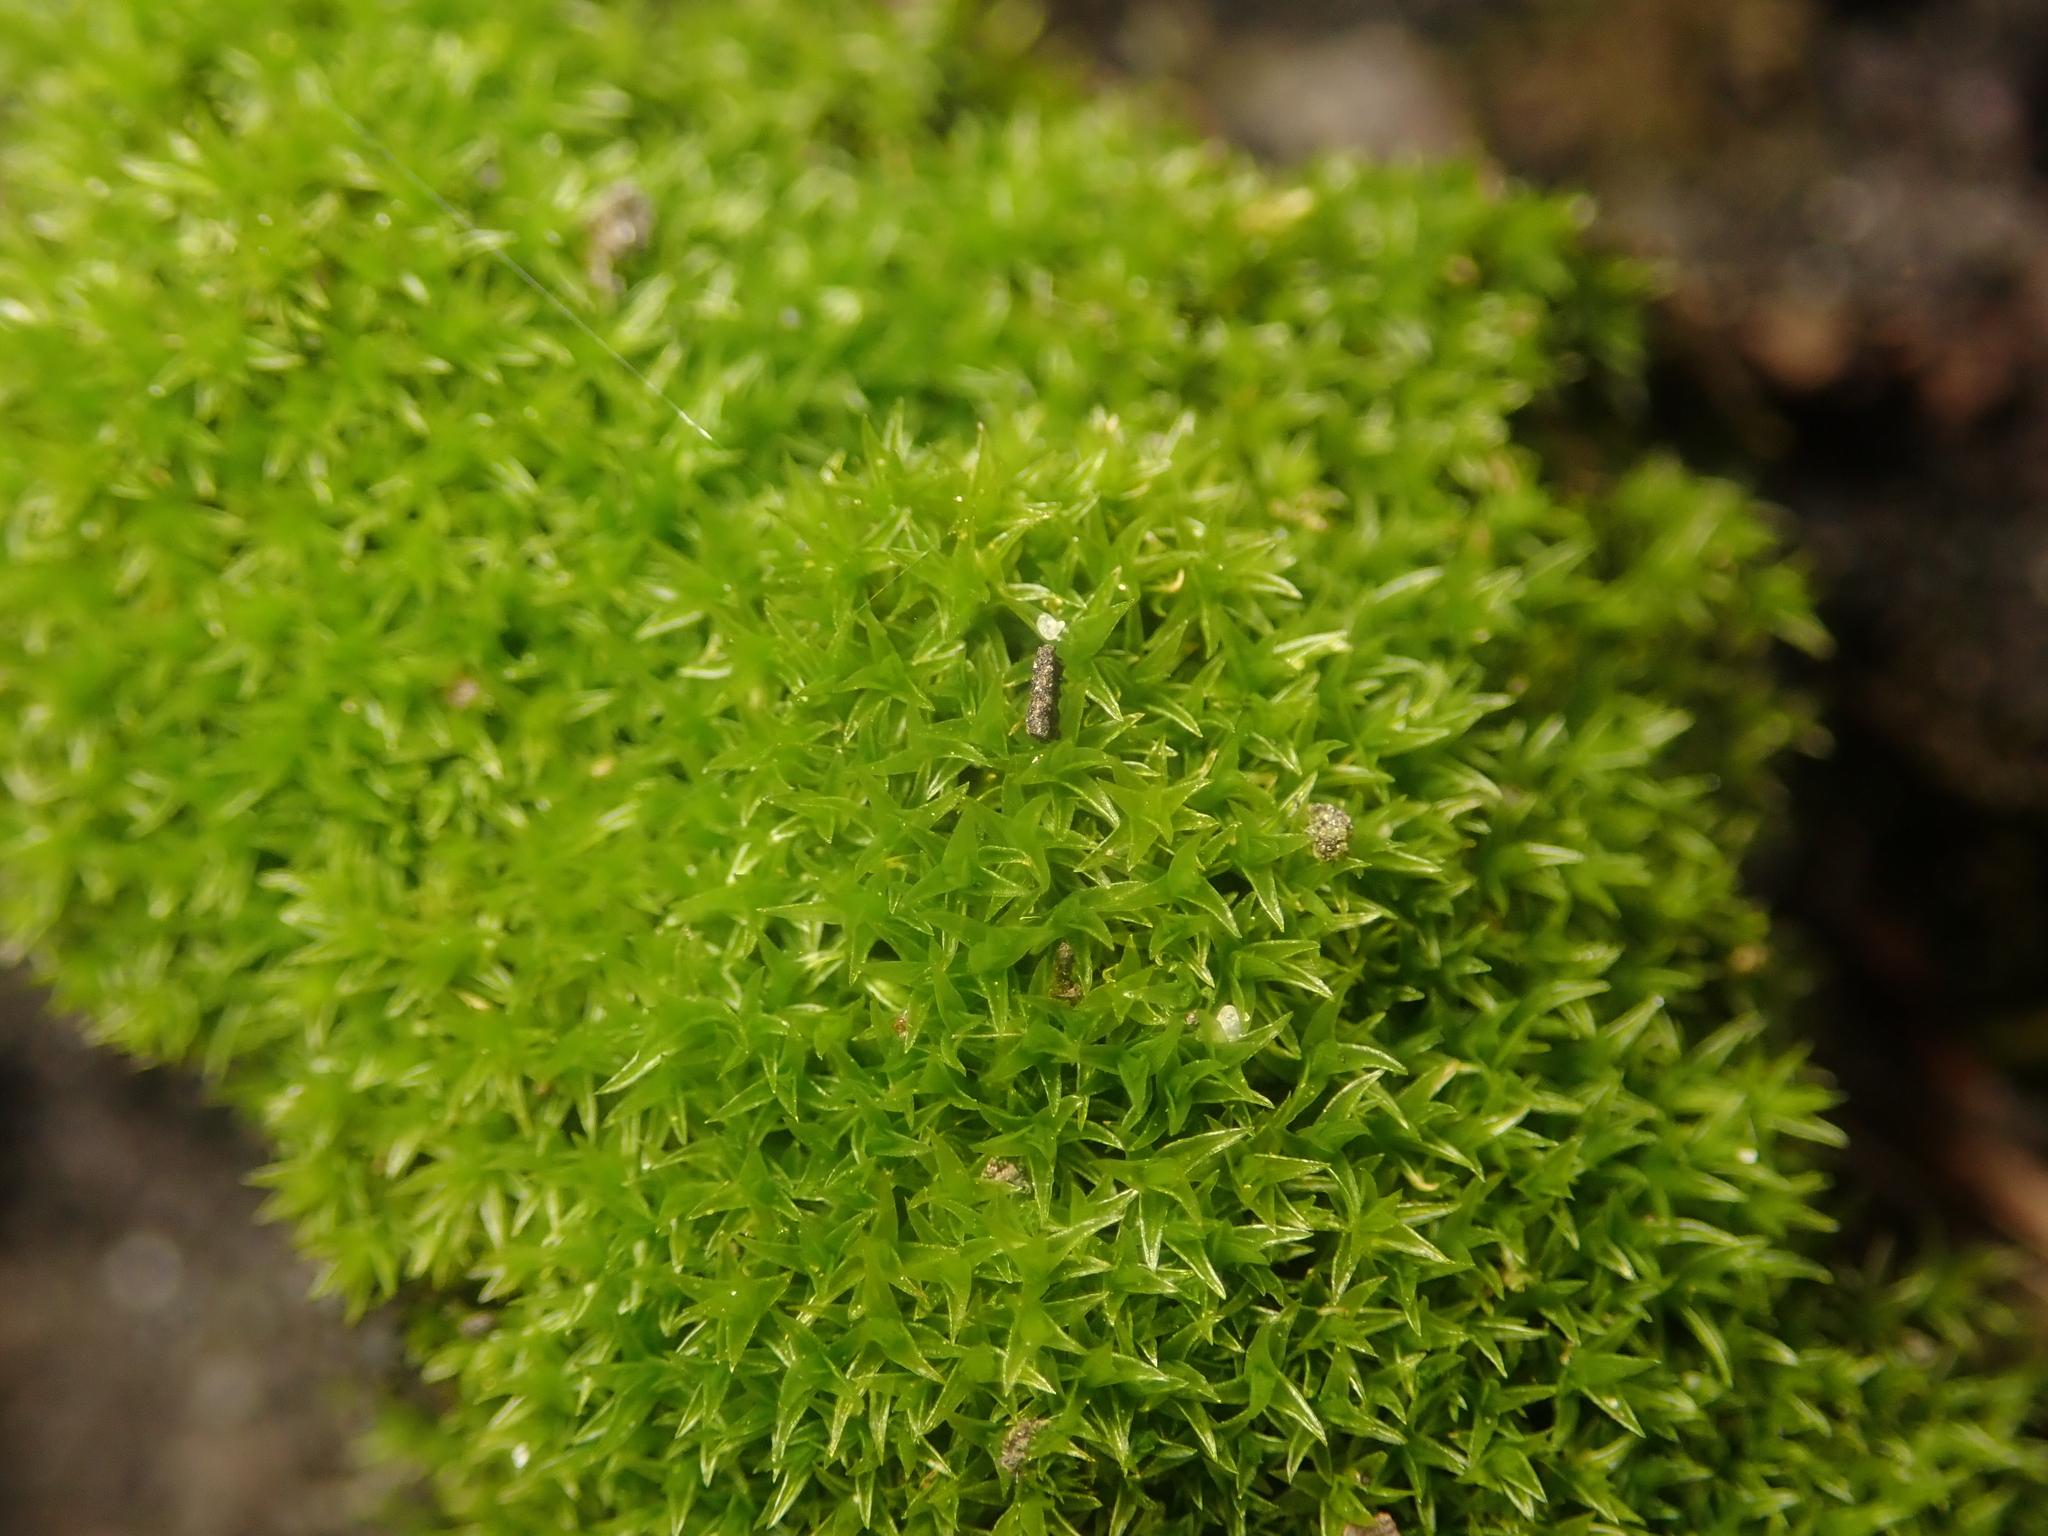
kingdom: Plantae
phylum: Bryophyta
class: Bryopsida
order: Dicranales
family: Ditrichaceae
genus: Ceratodon
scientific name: Ceratodon purpureus
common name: Redshank
